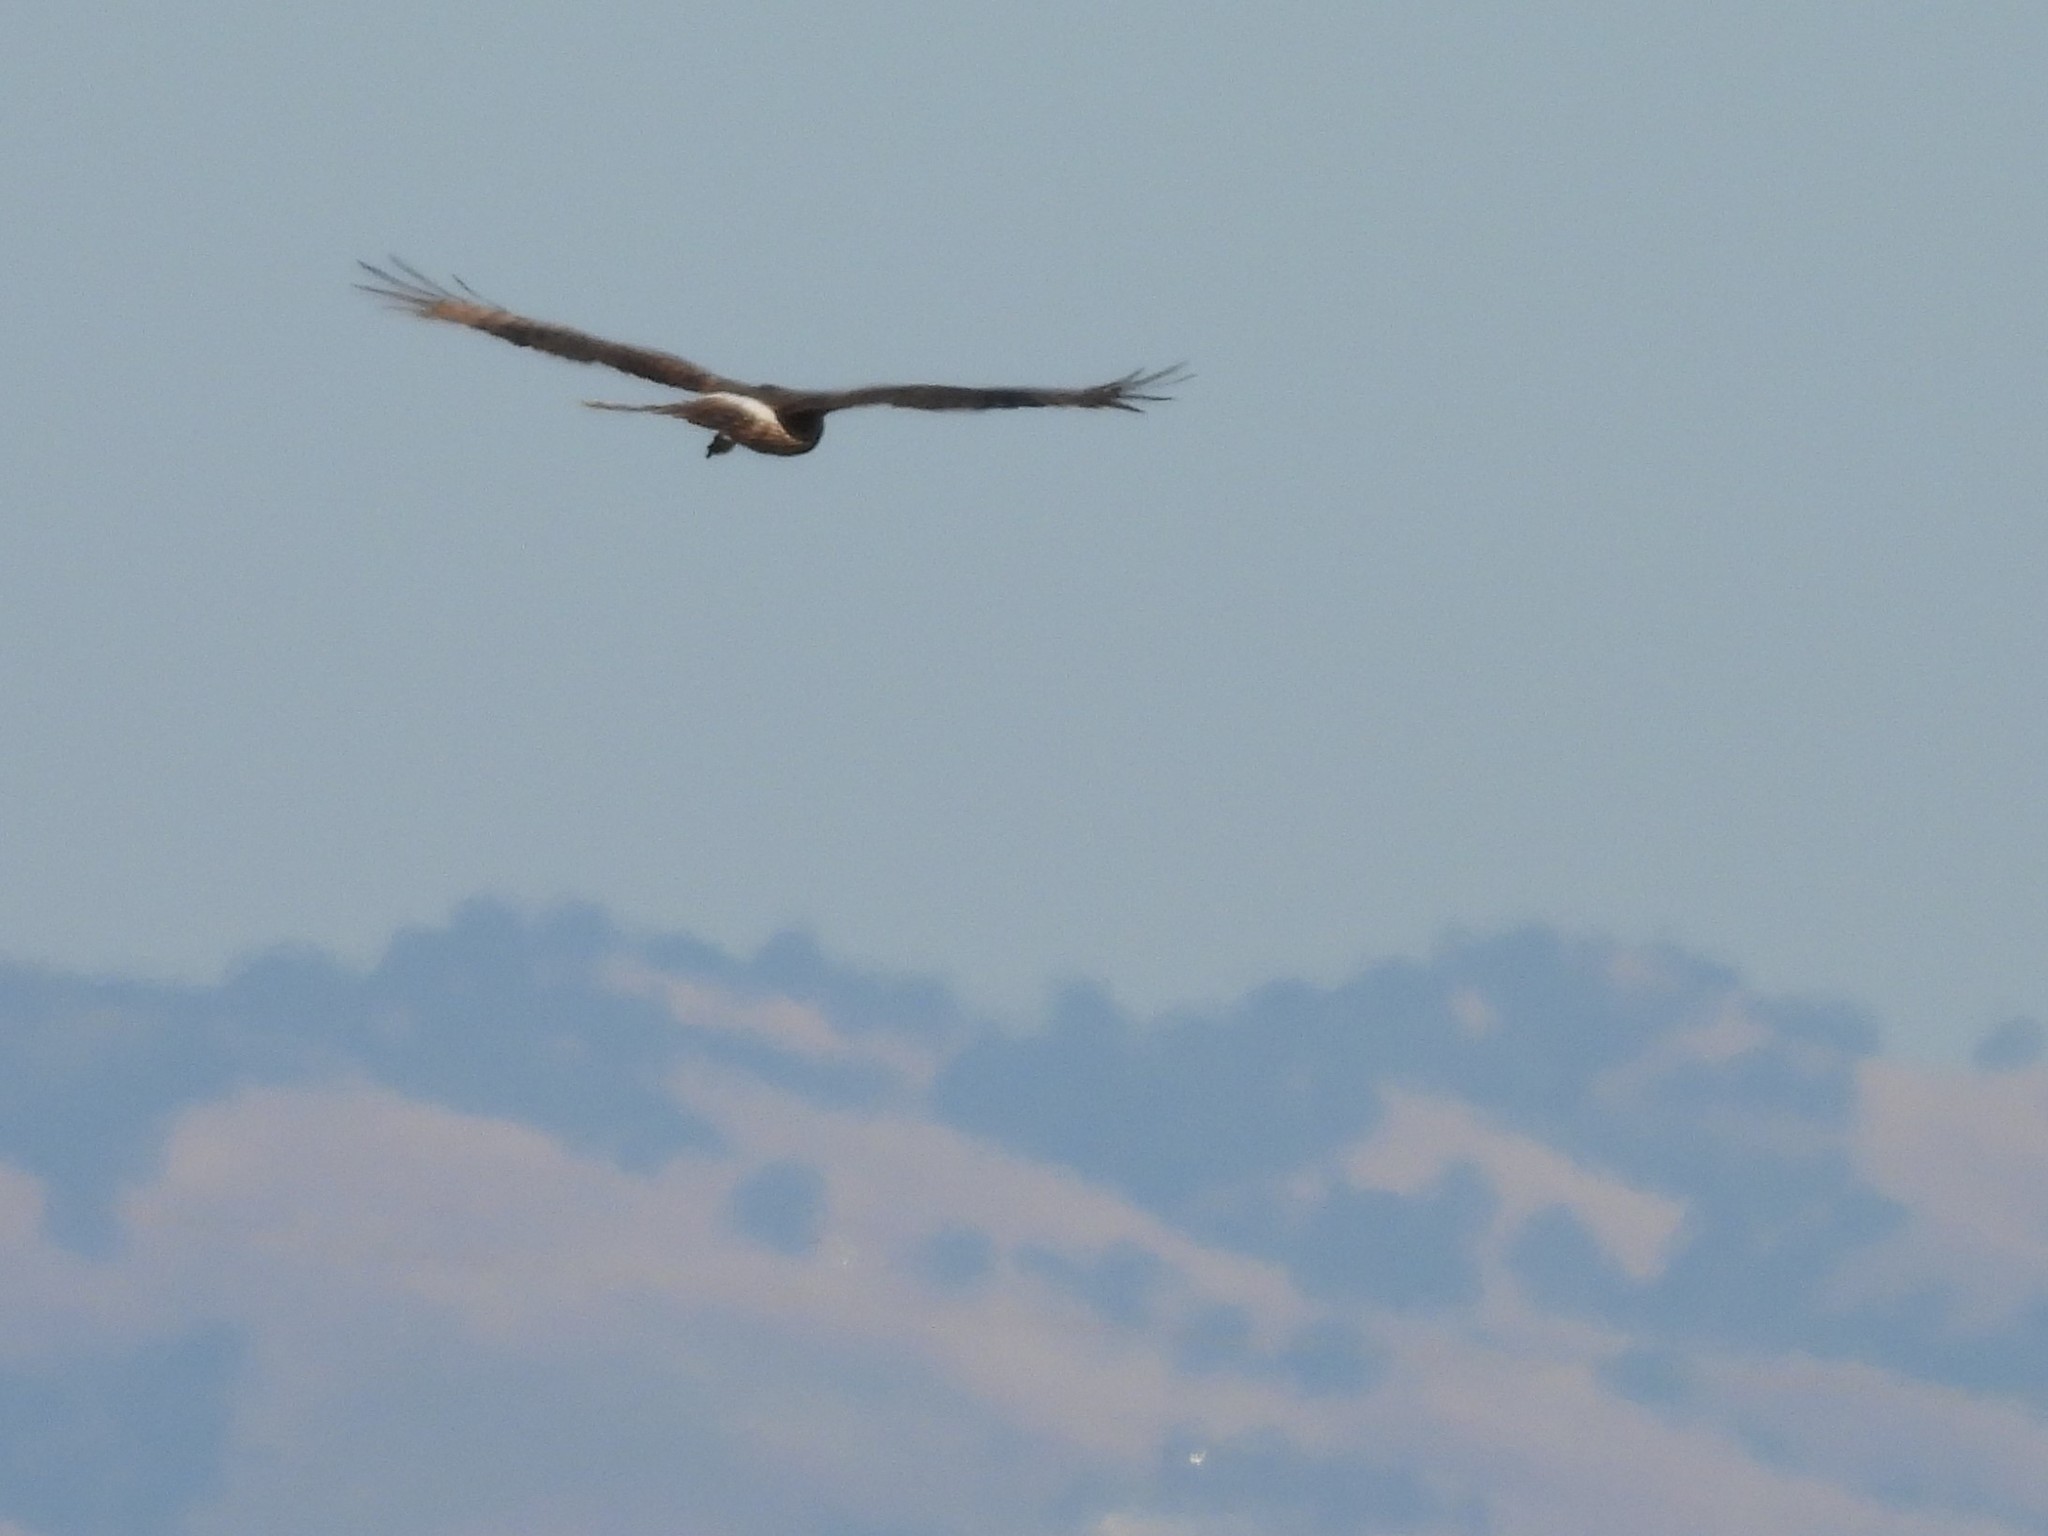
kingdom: Animalia
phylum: Chordata
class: Aves
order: Accipitriformes
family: Accipitridae
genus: Circus
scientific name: Circus cyaneus
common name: Hen harrier
